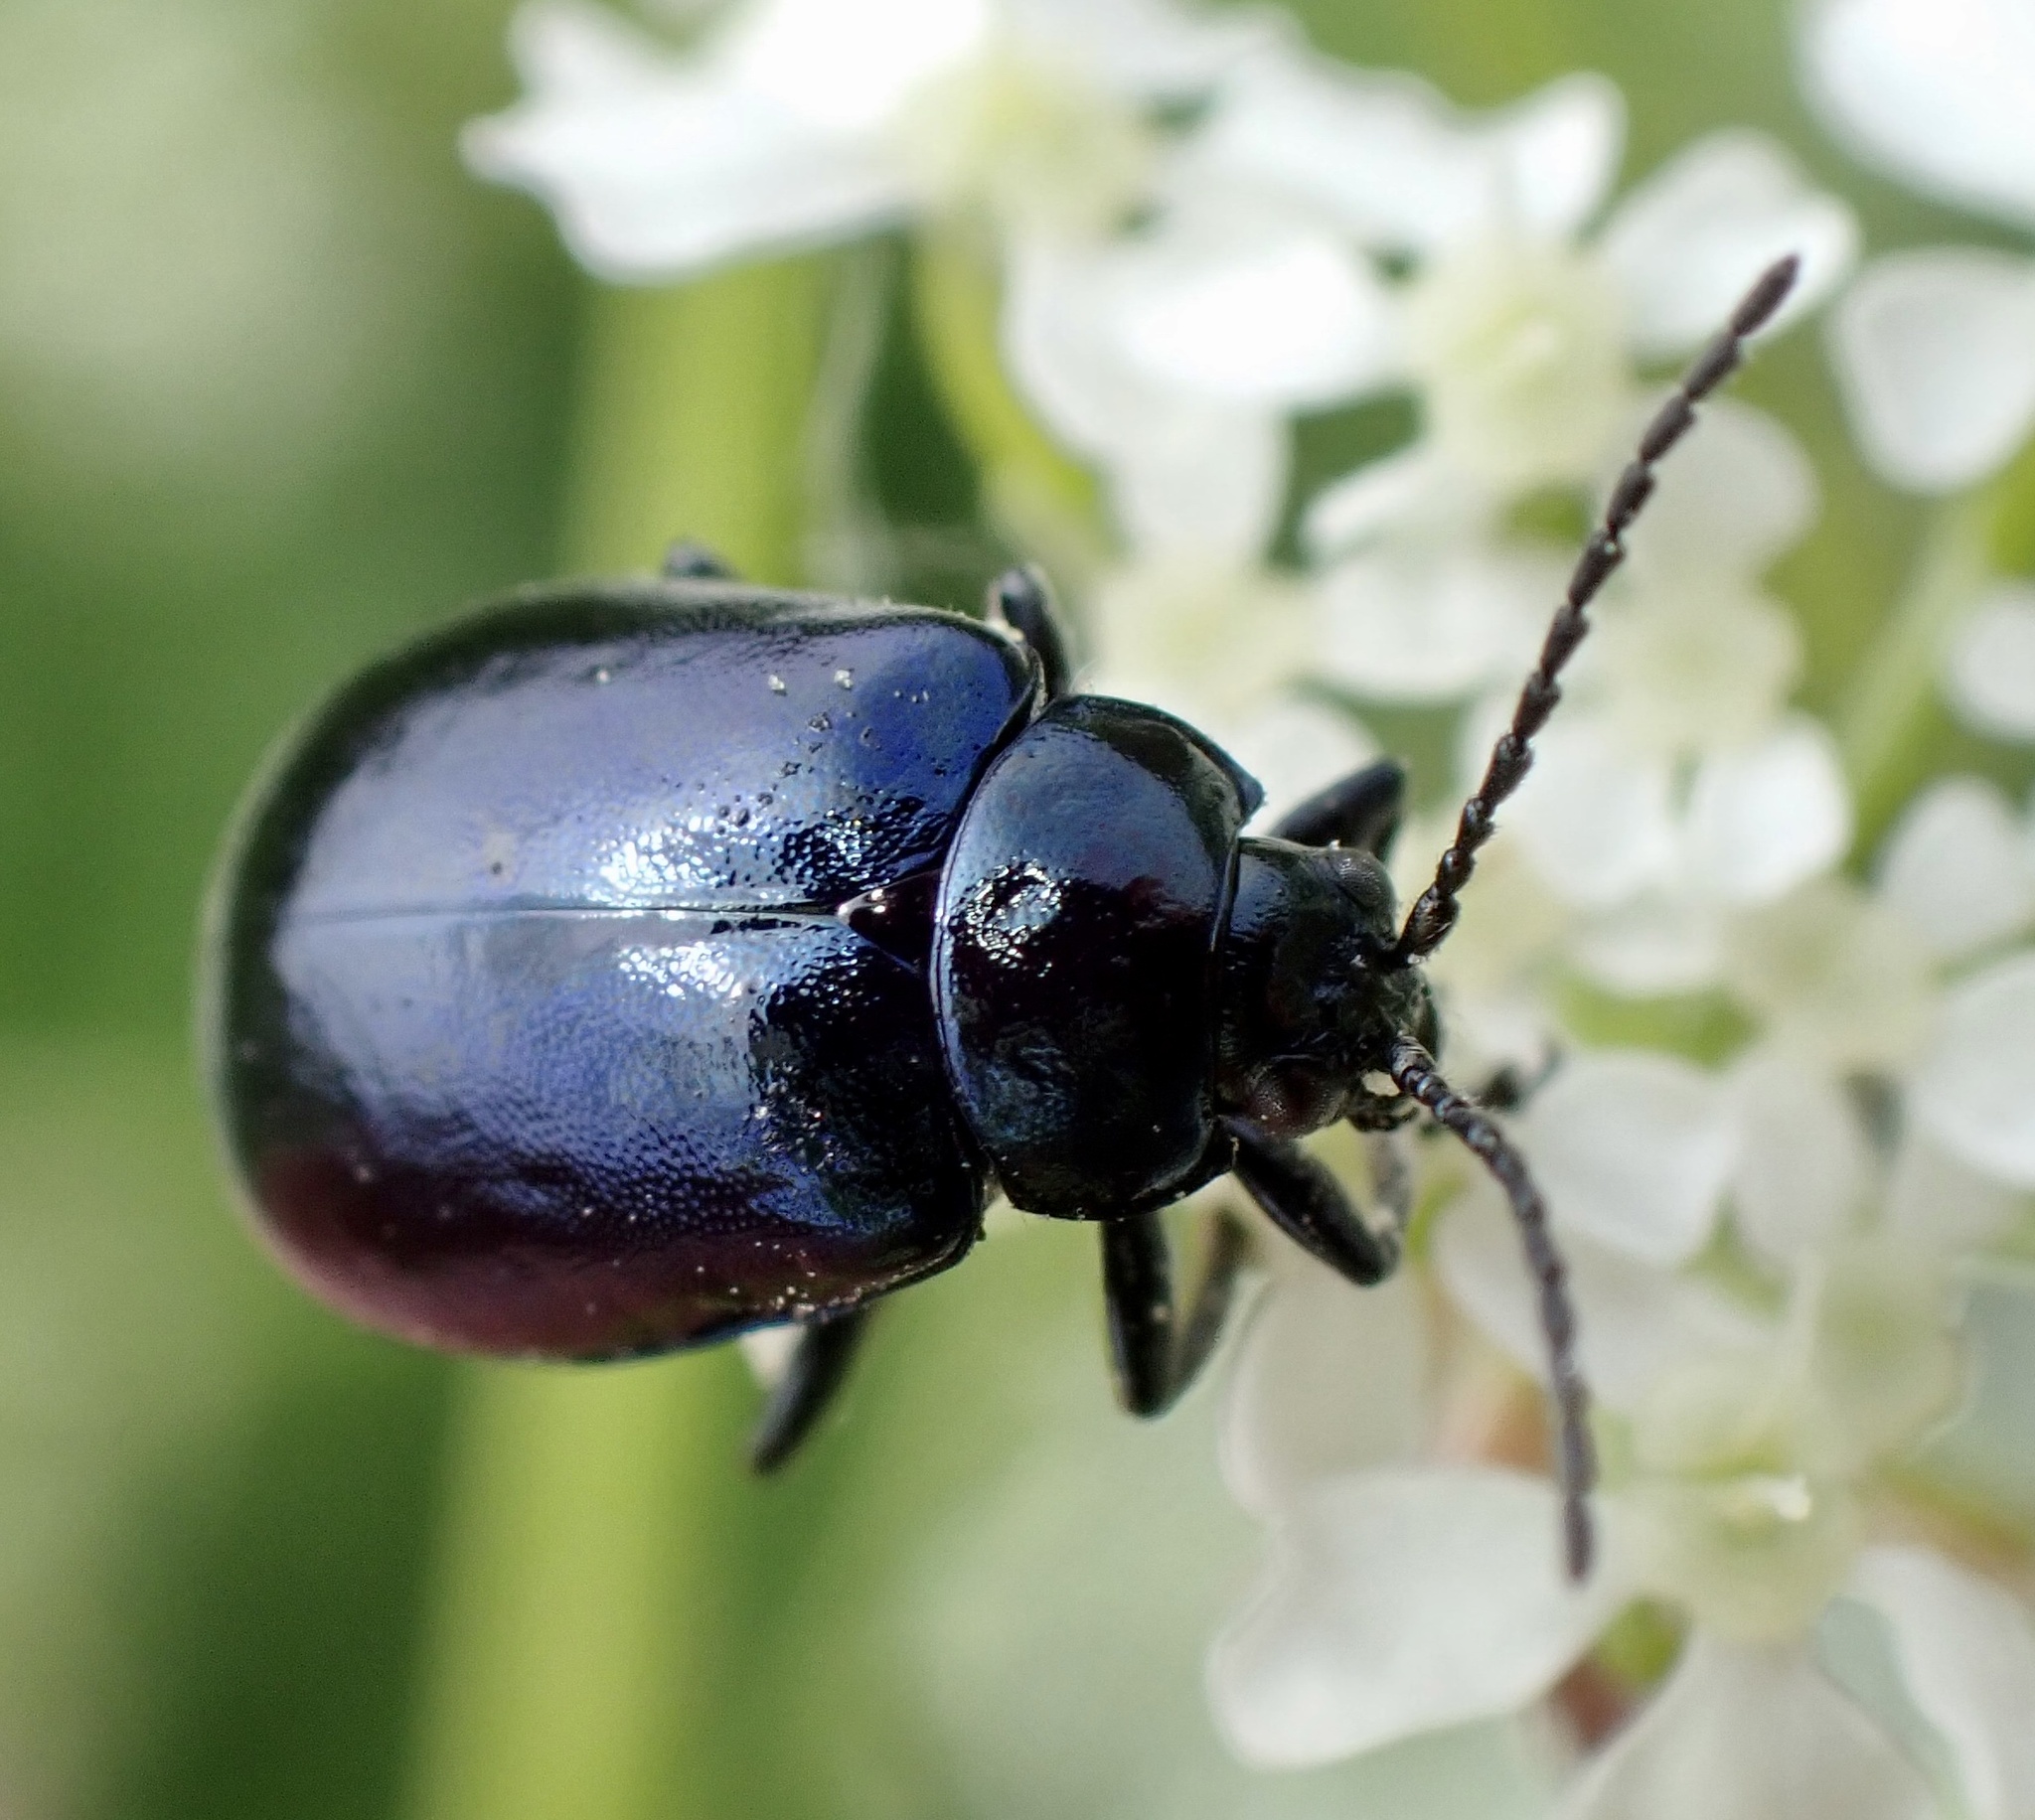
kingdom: Animalia
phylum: Arthropoda
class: Insecta
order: Coleoptera
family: Chrysomelidae
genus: Agelastica
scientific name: Agelastica alni
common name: Alder leaf beetle
